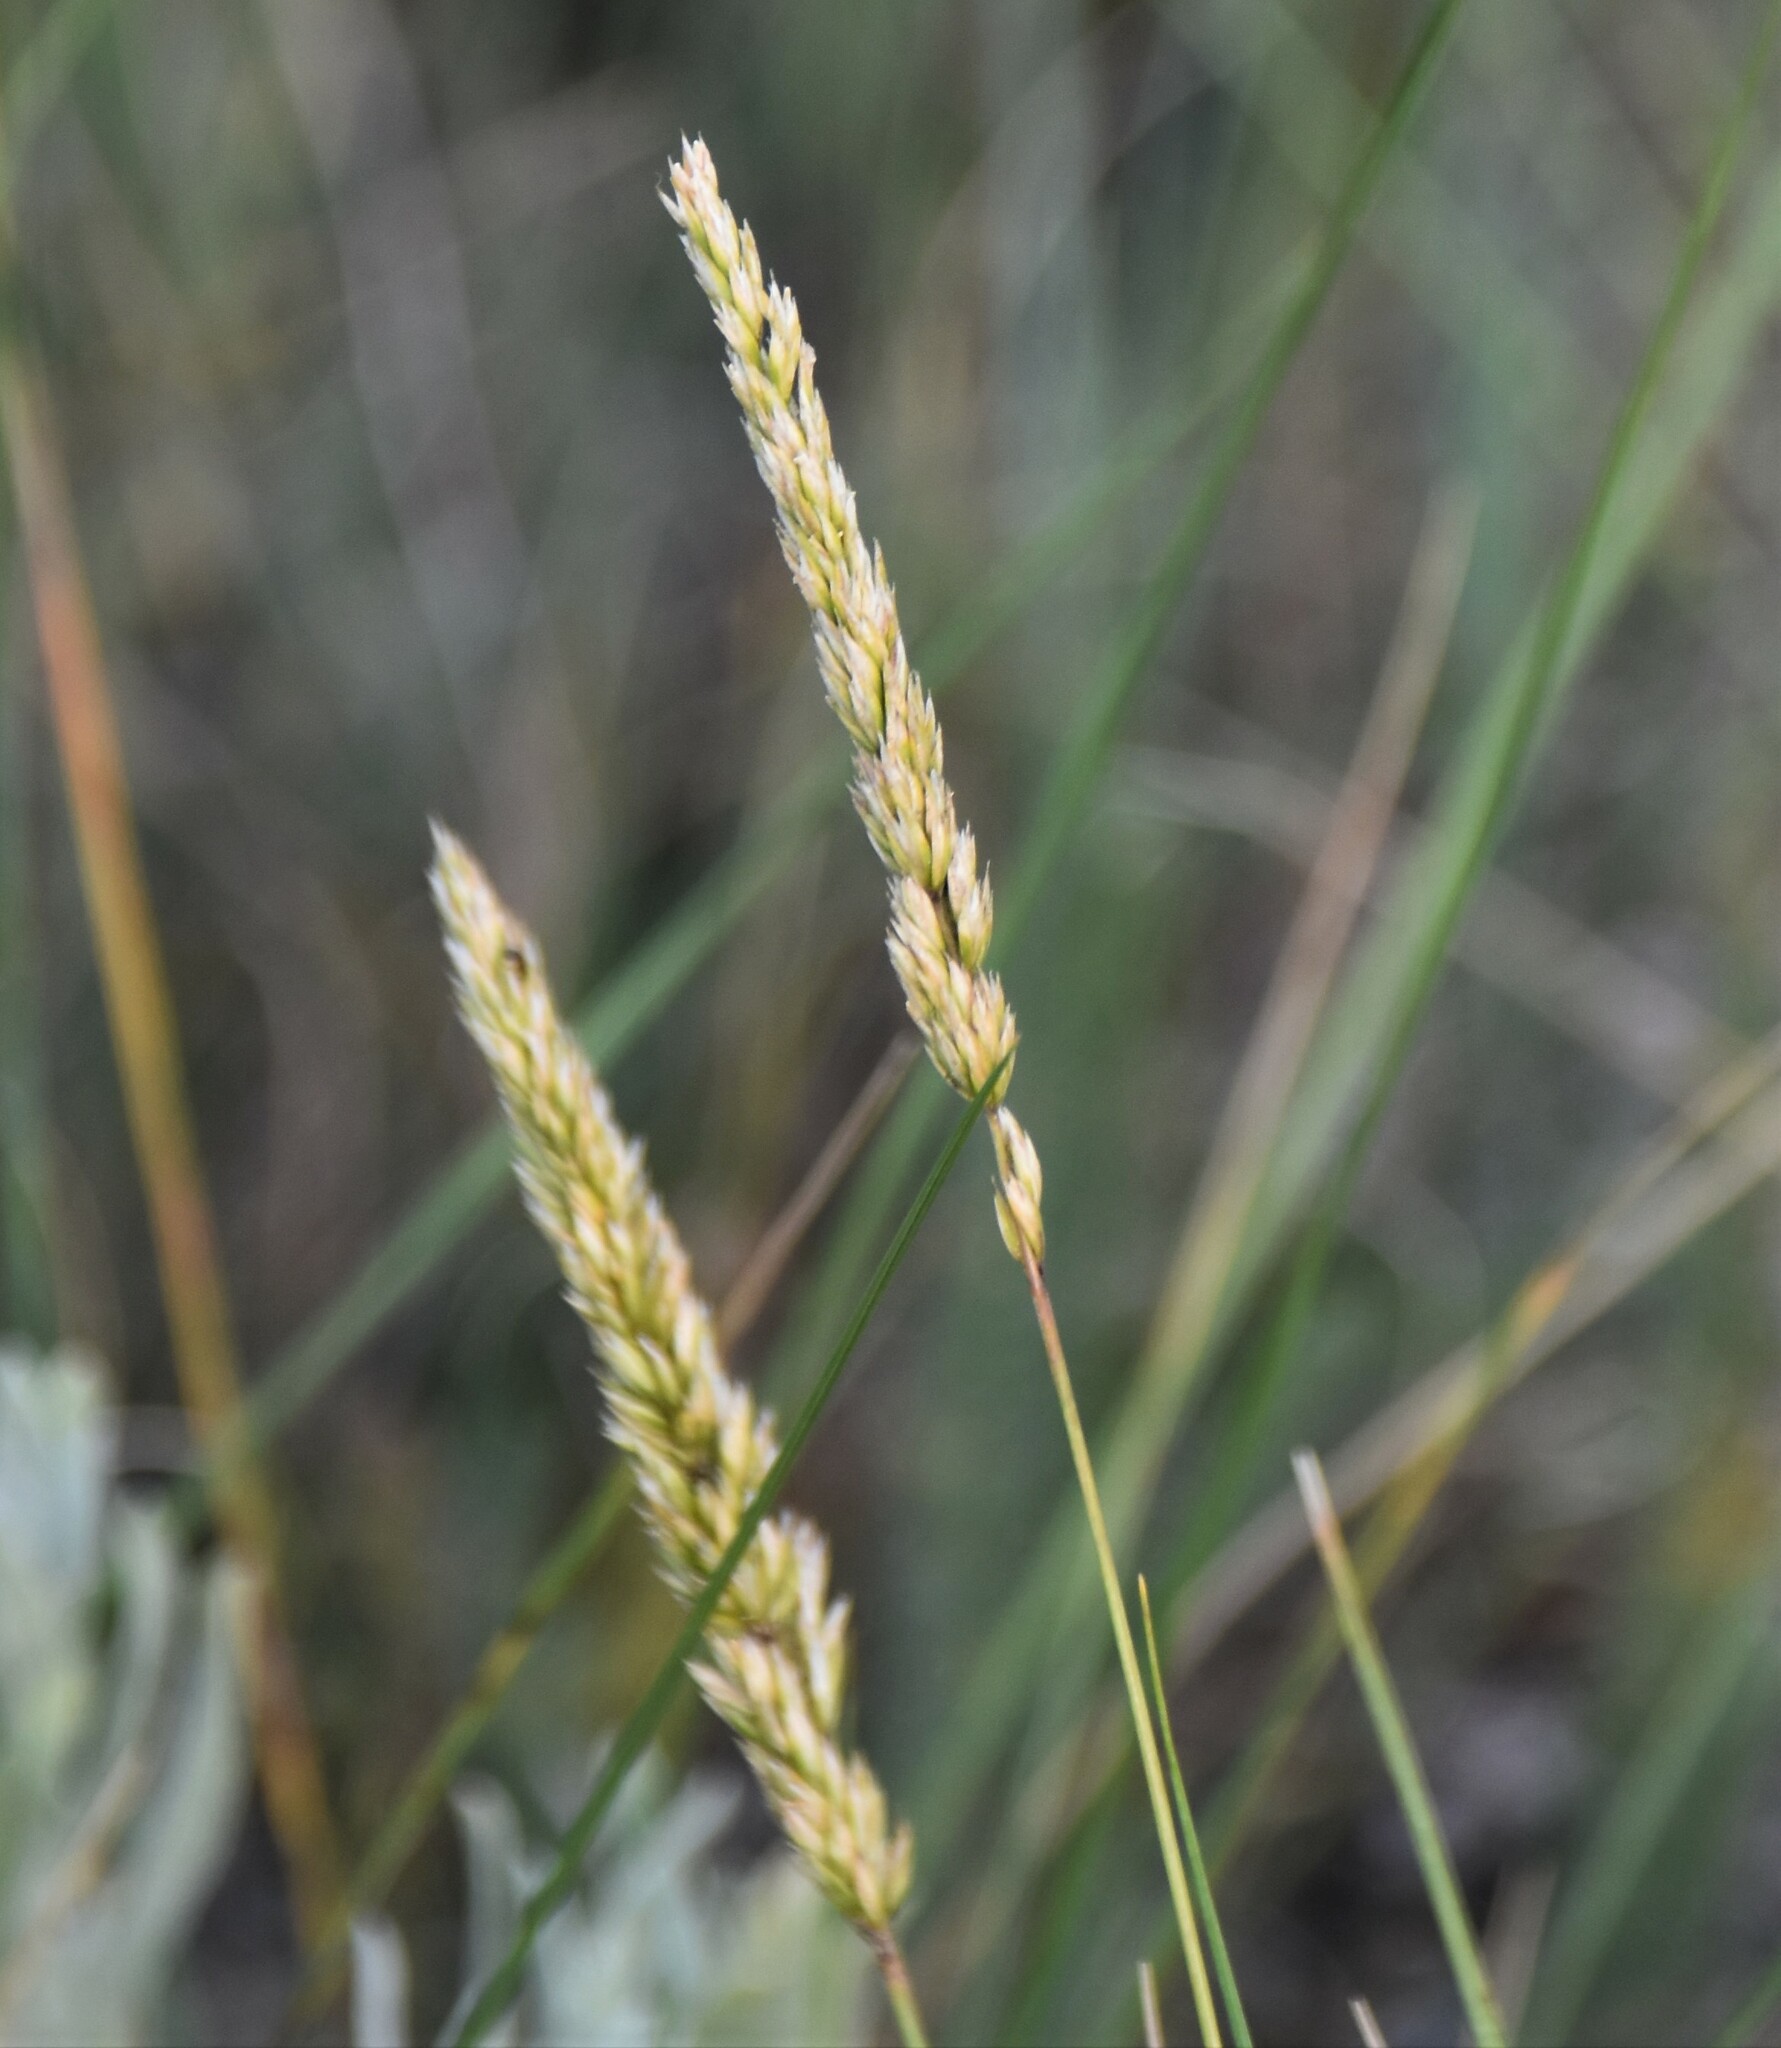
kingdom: Plantae
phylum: Tracheophyta
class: Liliopsida
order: Poales
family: Poaceae
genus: Koeleria
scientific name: Koeleria macrantha
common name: Crested hair-grass
